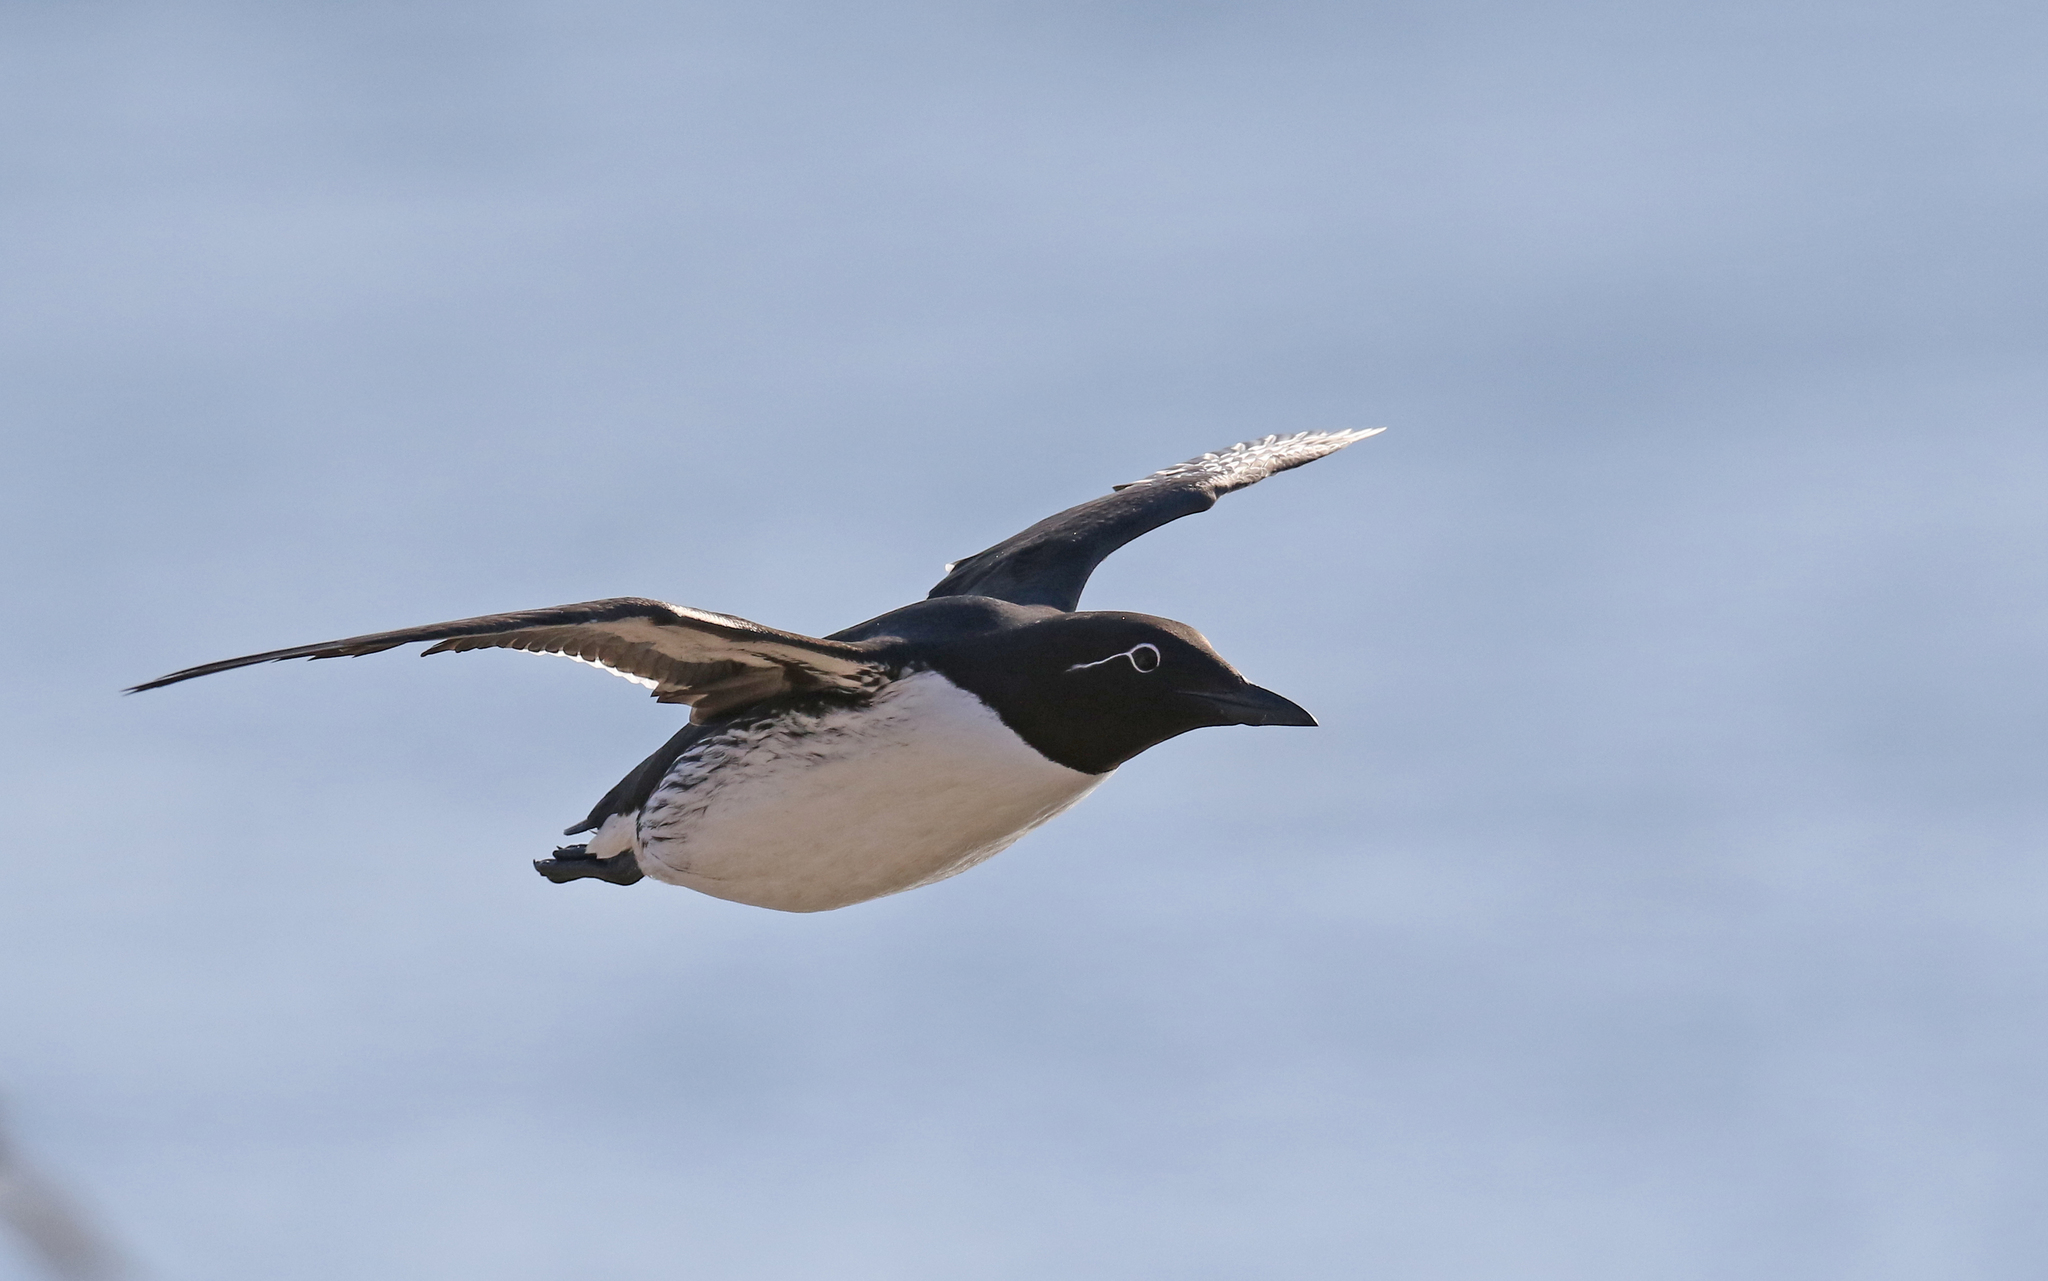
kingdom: Animalia
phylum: Chordata
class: Aves
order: Charadriiformes
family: Alcidae
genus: Uria
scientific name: Uria aalge
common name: Common murre
